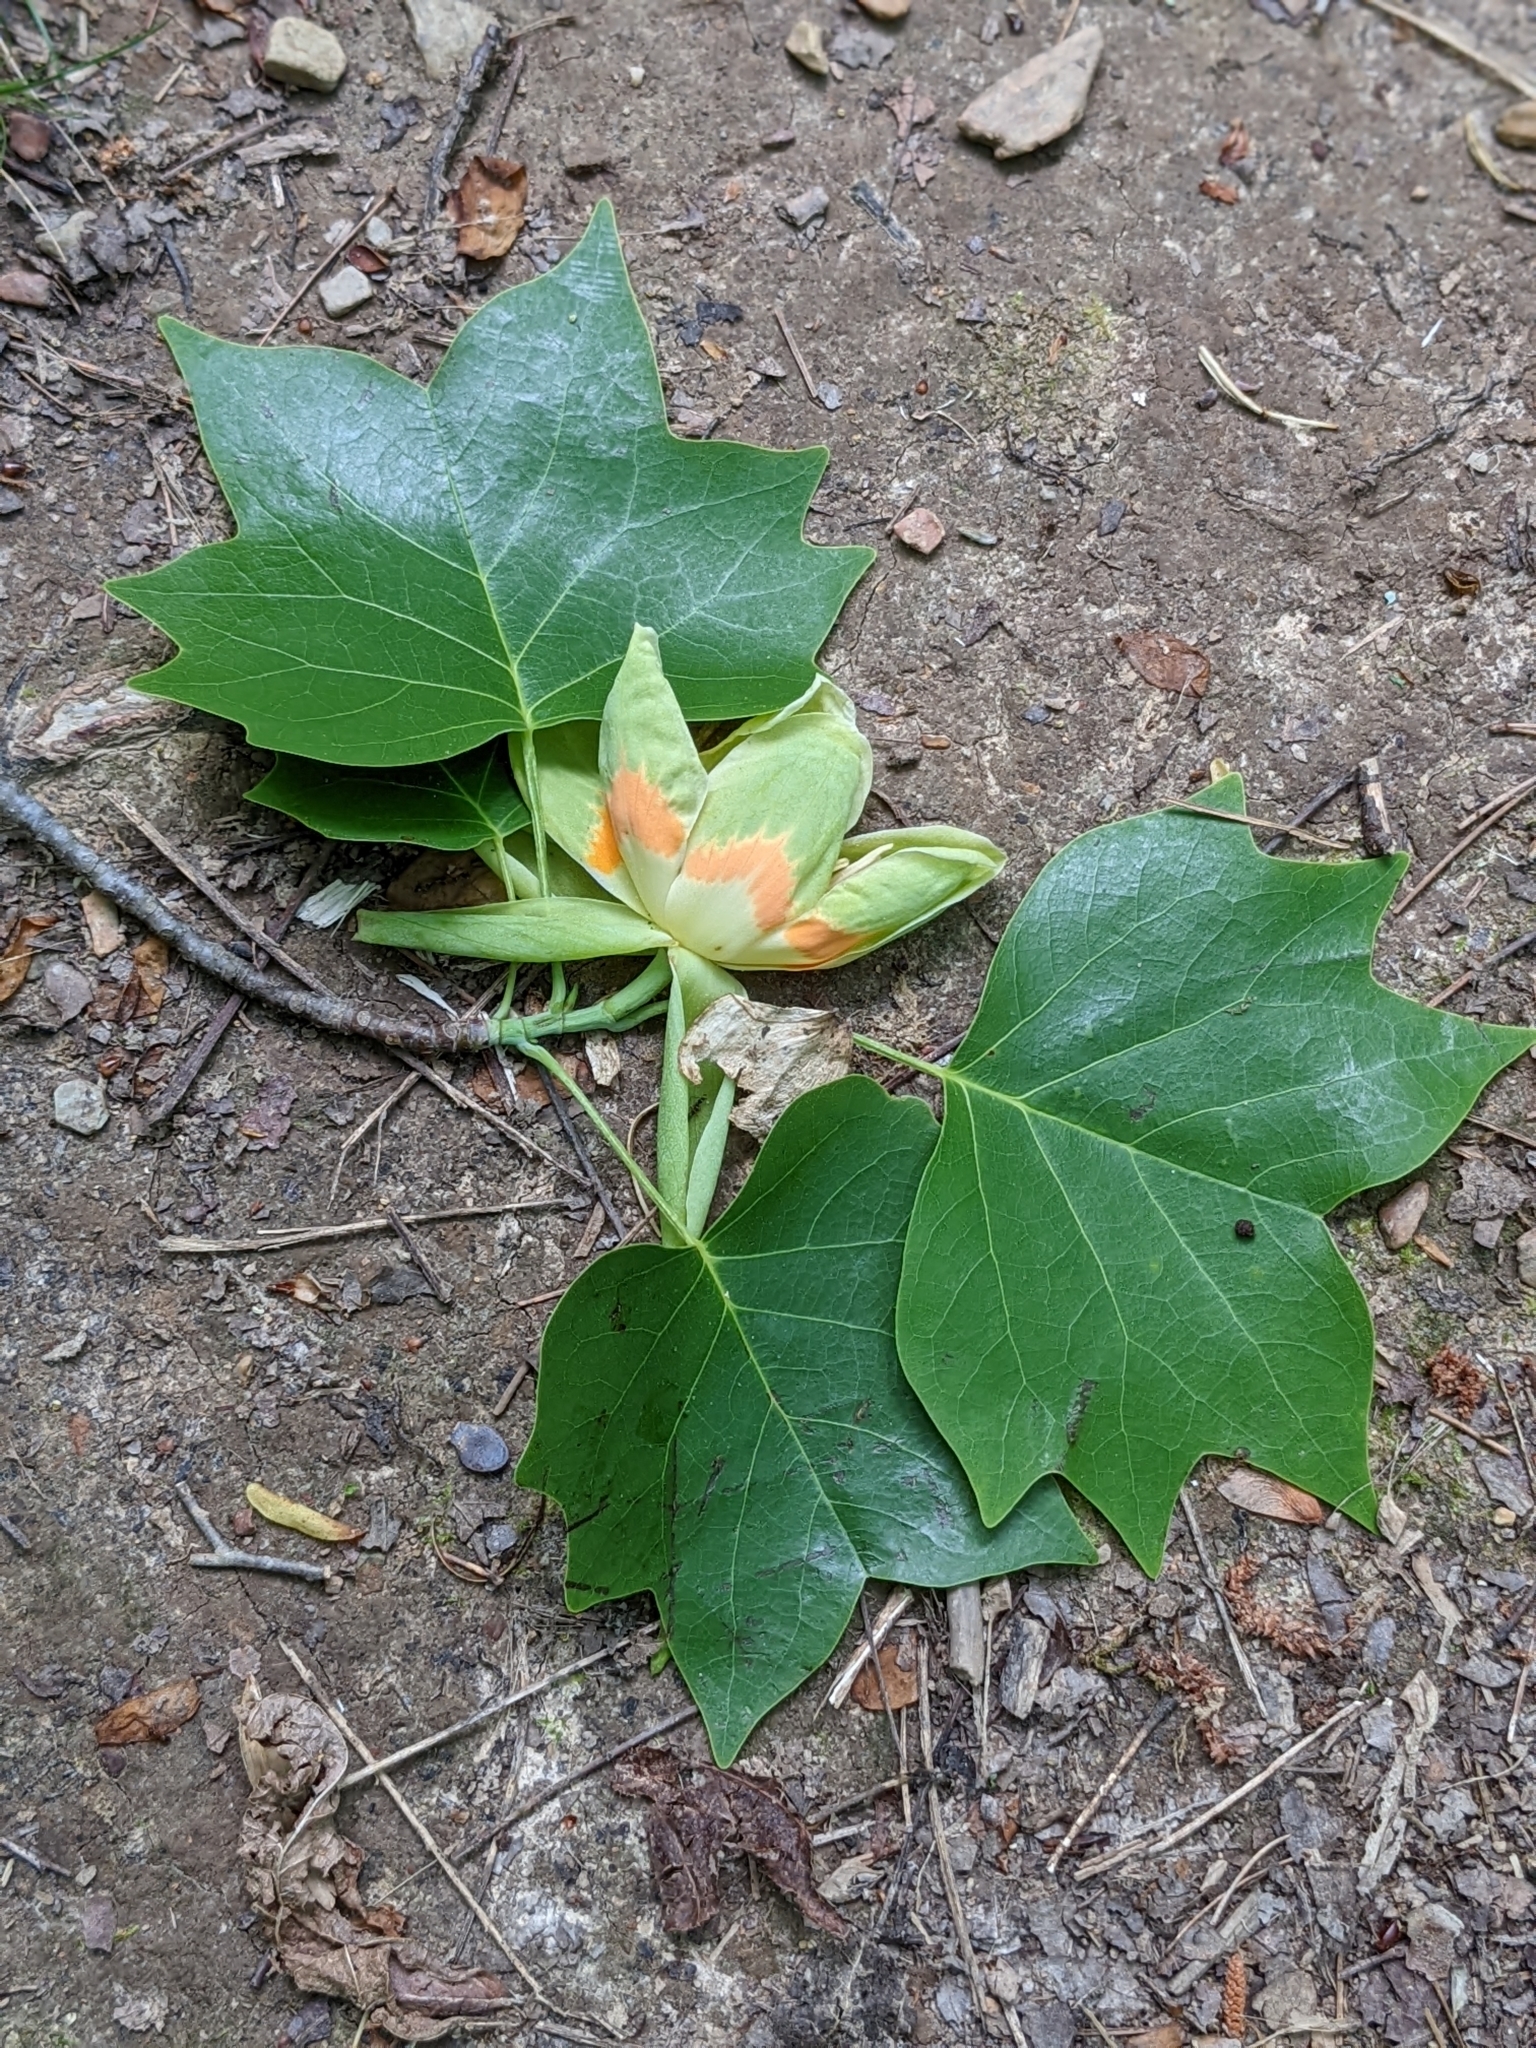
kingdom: Plantae
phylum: Tracheophyta
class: Magnoliopsida
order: Magnoliales
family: Magnoliaceae
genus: Liriodendron
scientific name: Liriodendron tulipifera
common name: Tulip tree
